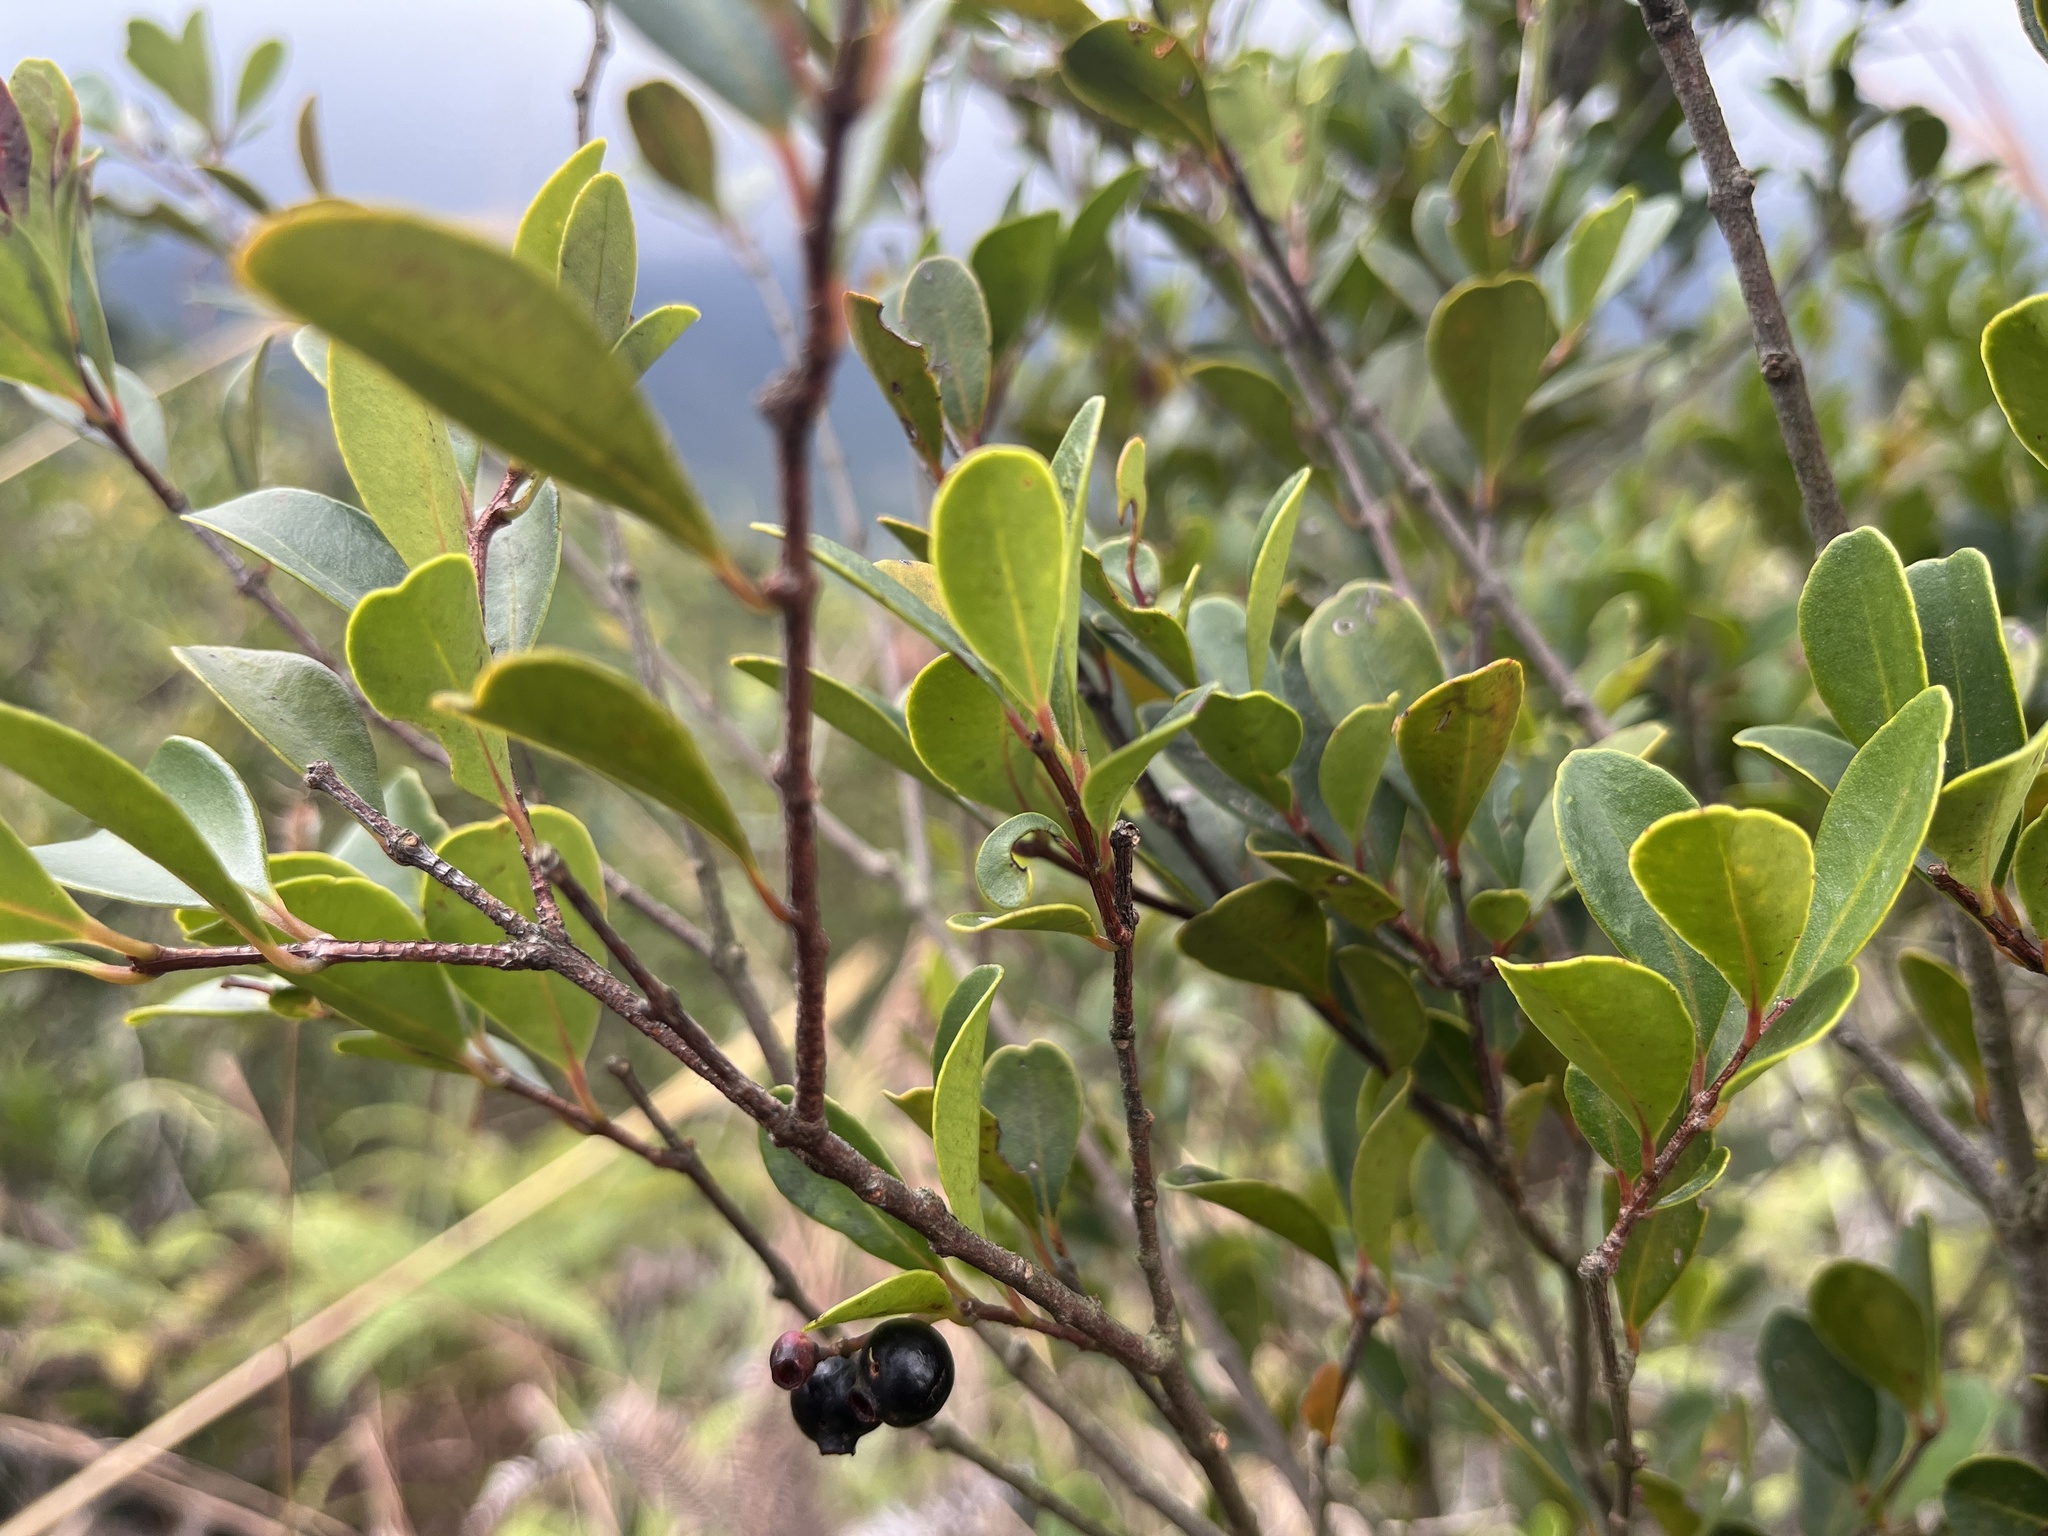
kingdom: Plantae
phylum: Tracheophyta
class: Magnoliopsida
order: Myrtales
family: Myrtaceae
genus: Syzygium
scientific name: Syzygium buxifolium
